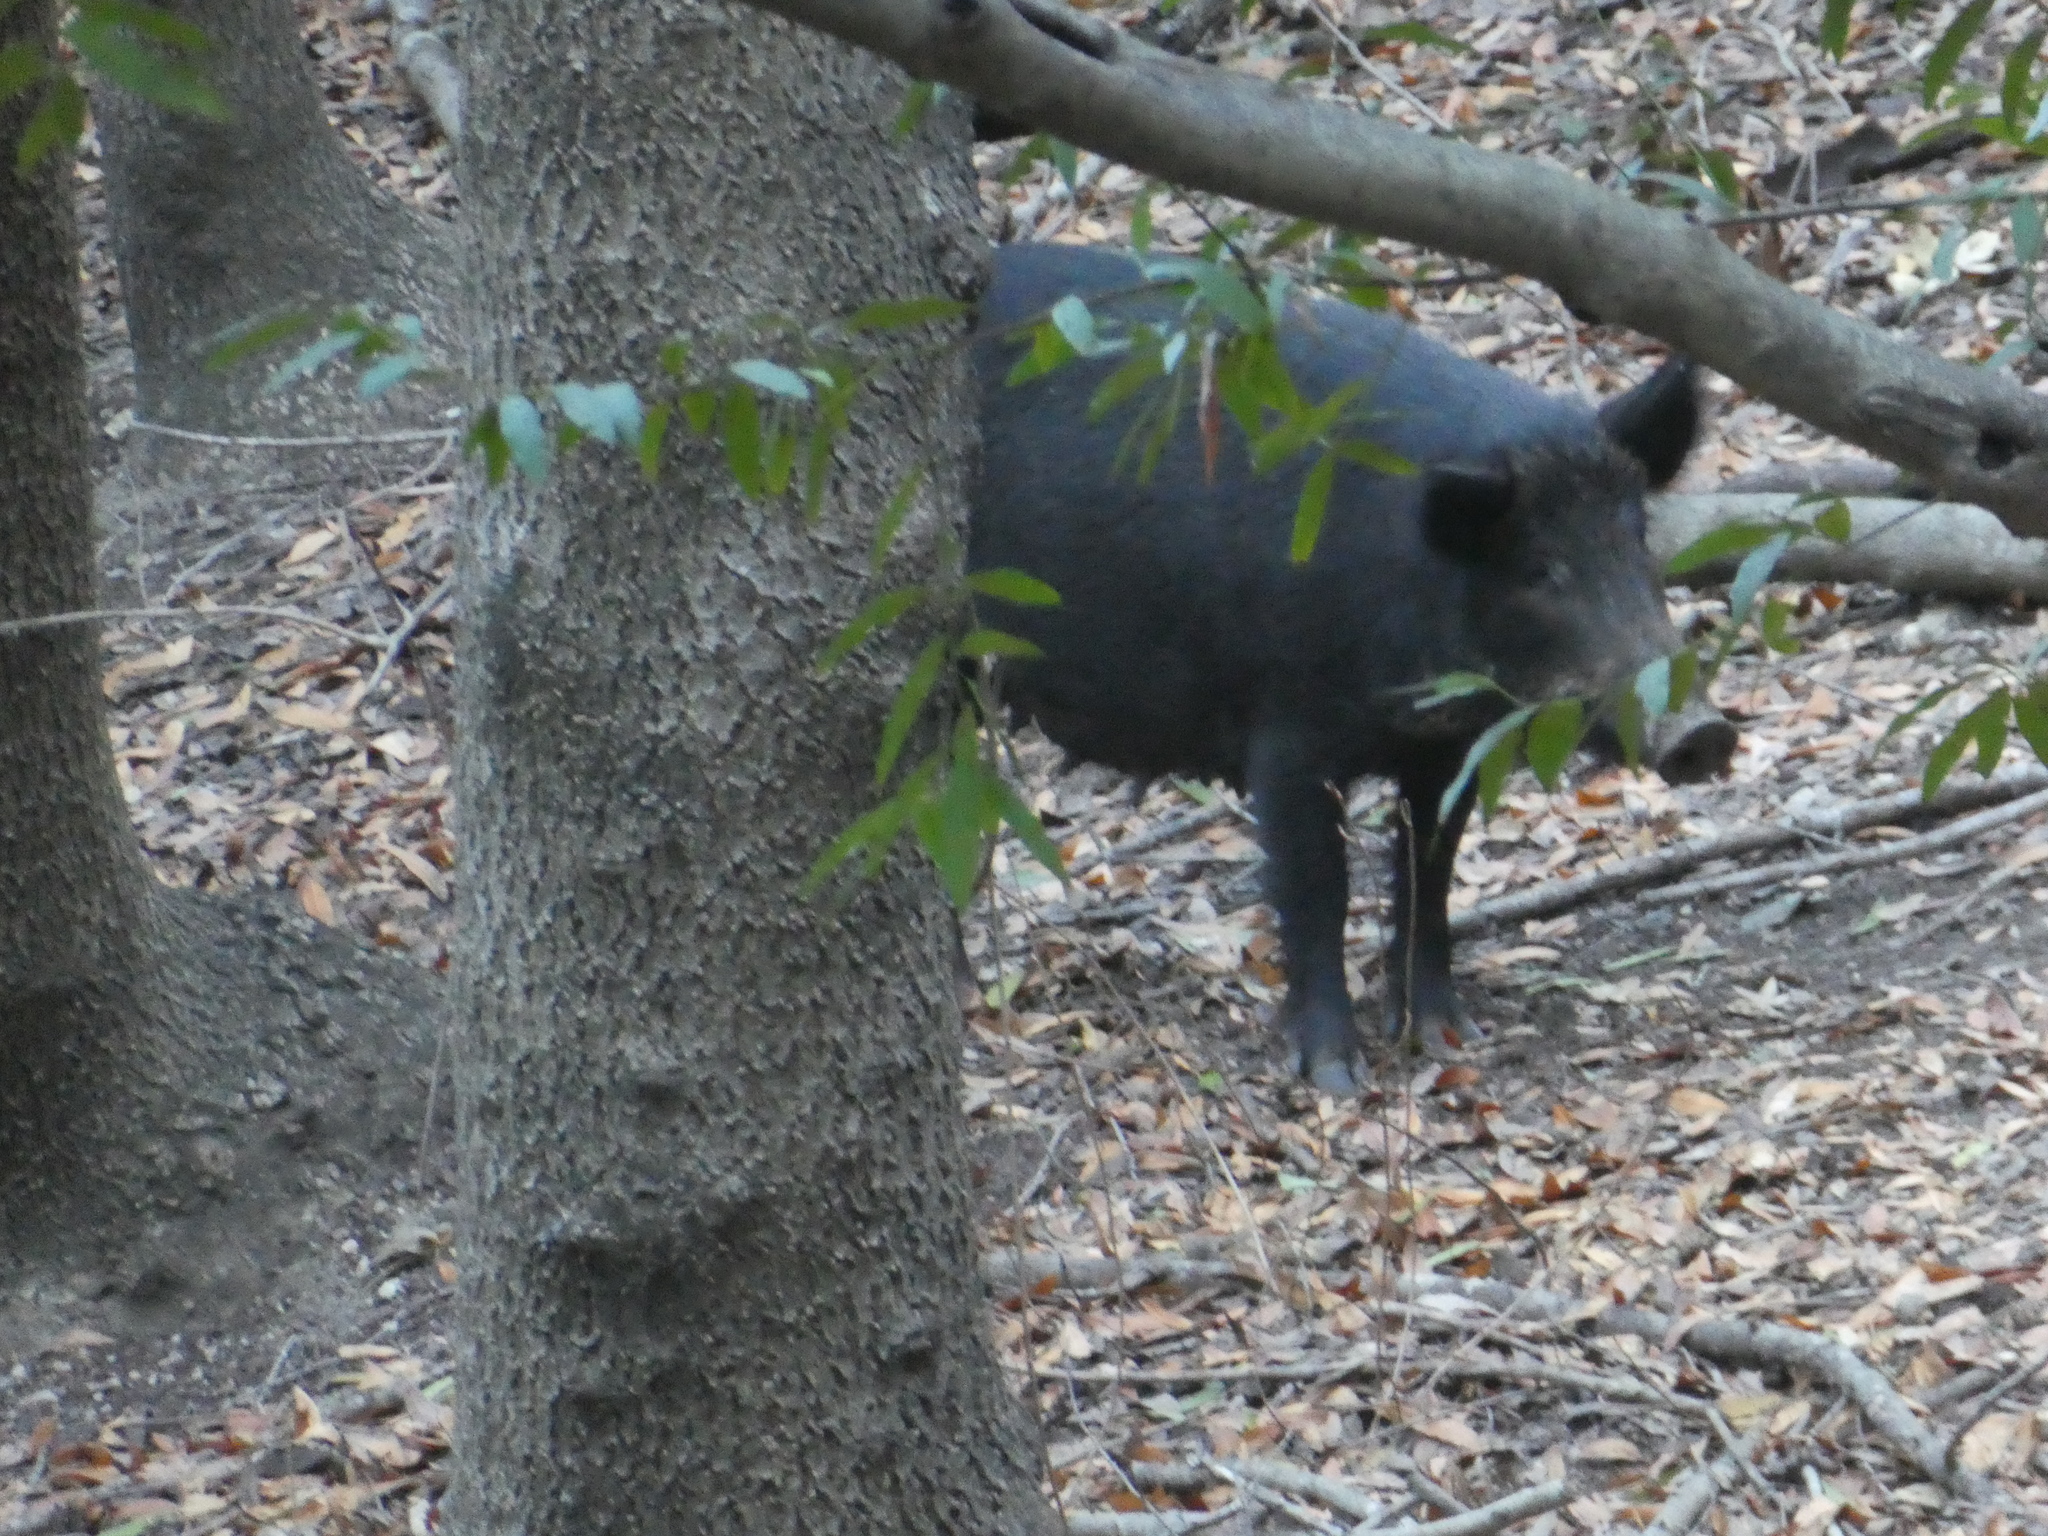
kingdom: Animalia
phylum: Chordata
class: Mammalia
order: Artiodactyla
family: Suidae
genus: Sus
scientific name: Sus scrofa
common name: Wild boar
